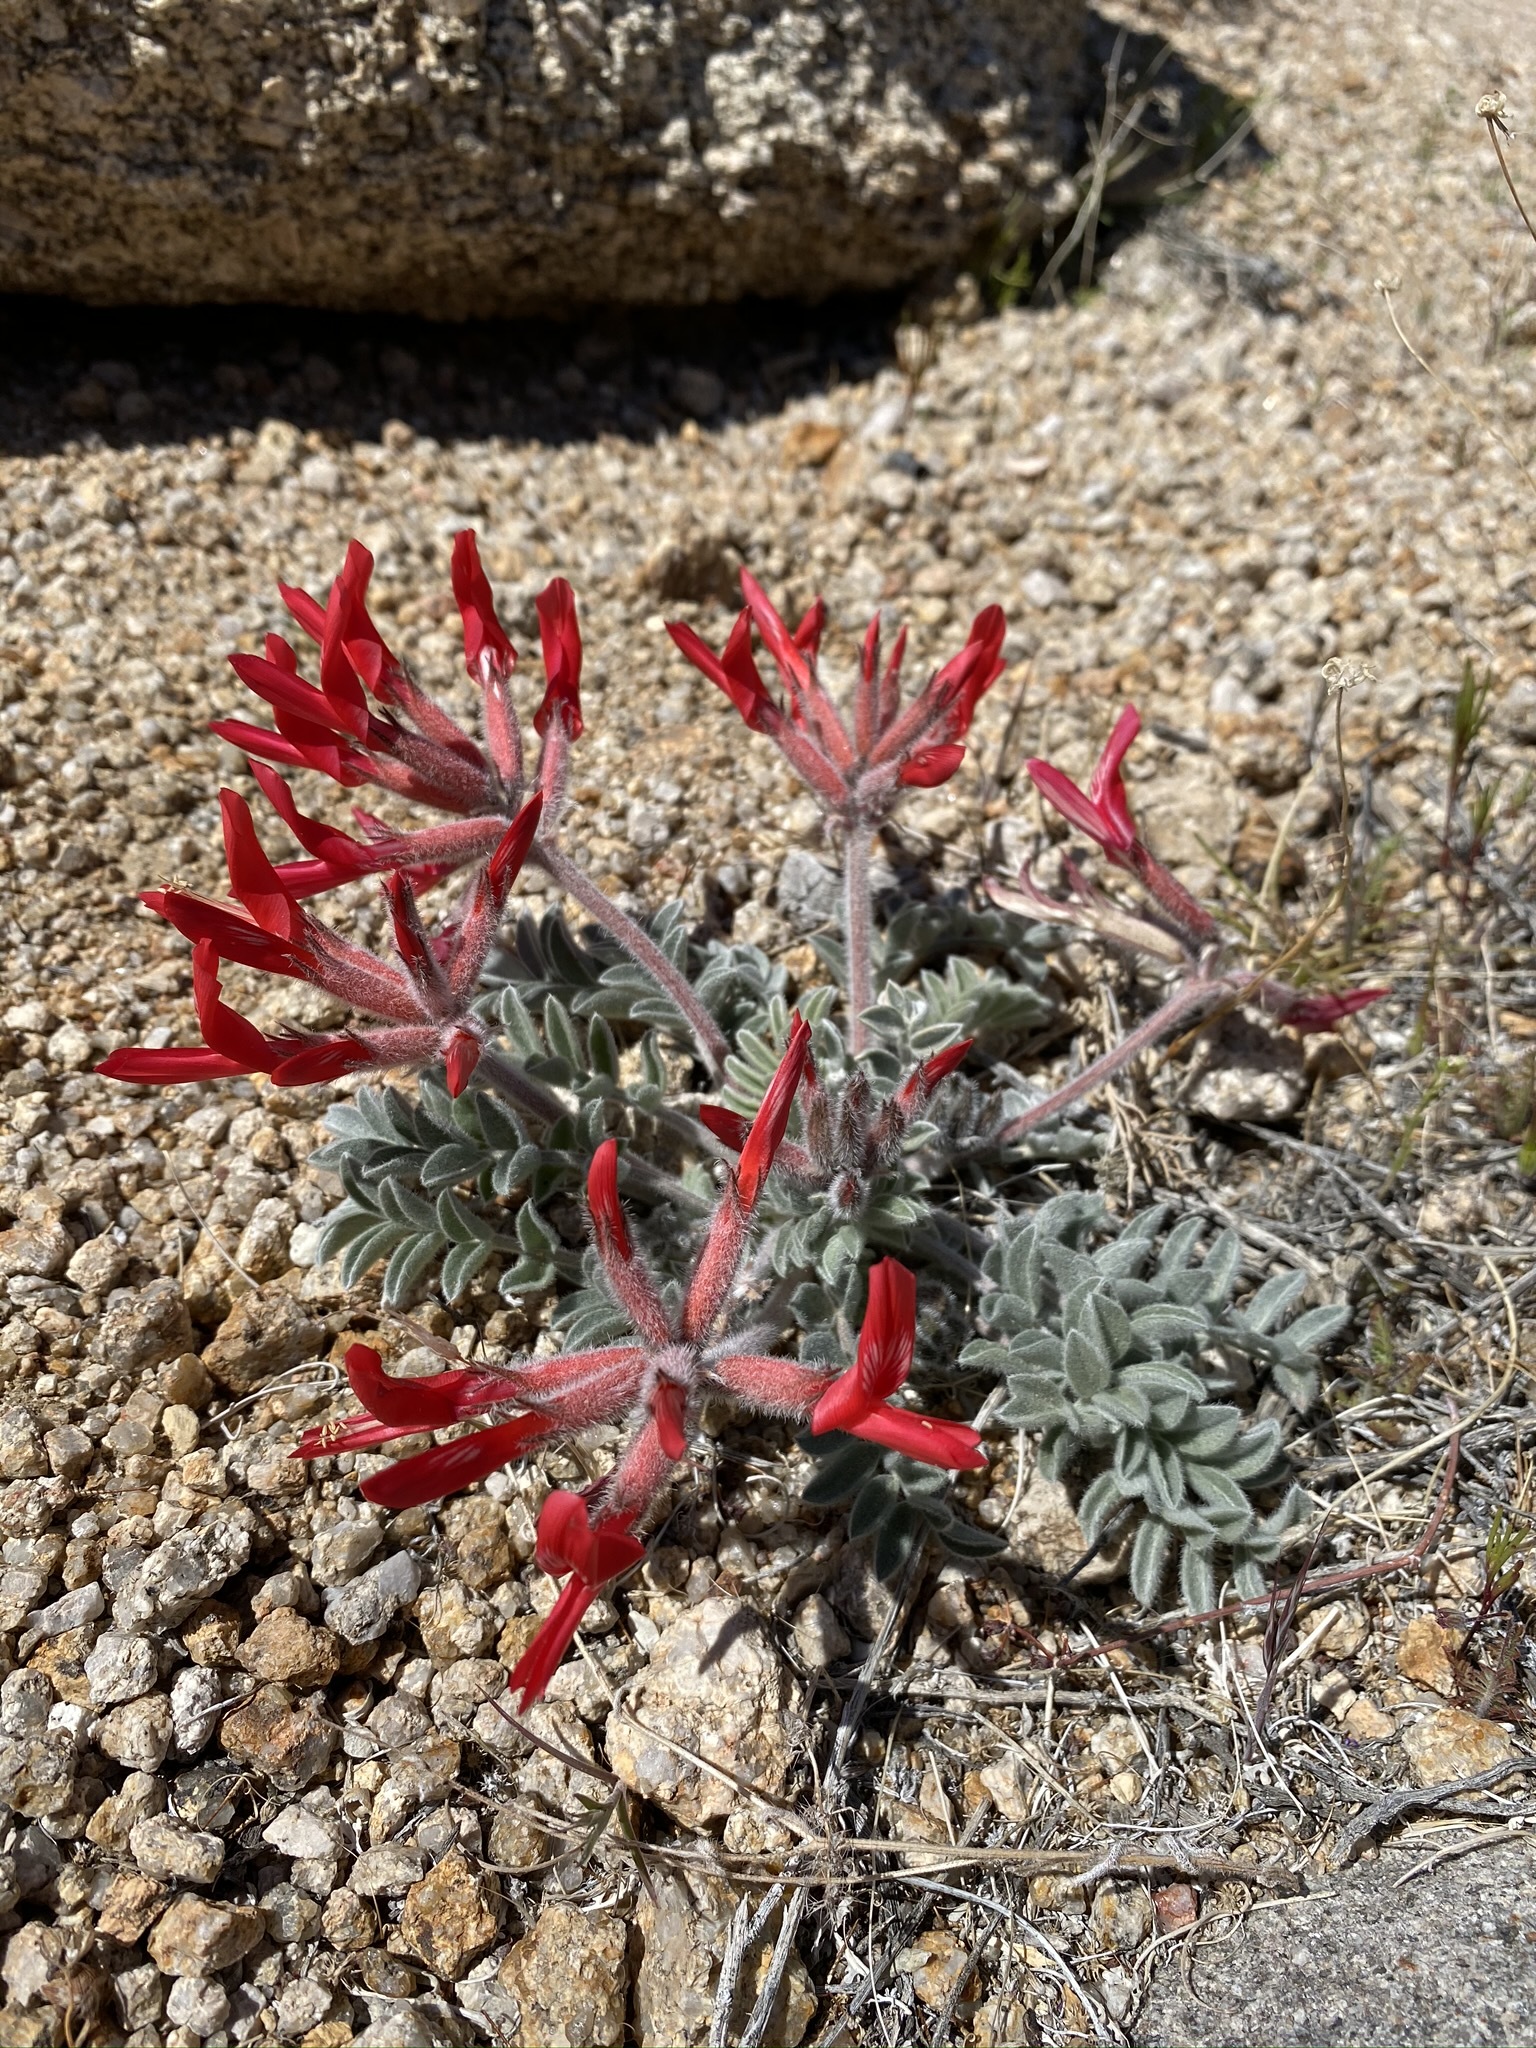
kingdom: Plantae
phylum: Tracheophyta
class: Magnoliopsida
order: Fabales
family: Fabaceae
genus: Astragalus
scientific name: Astragalus coccineus
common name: Scarlet milk-vetch
